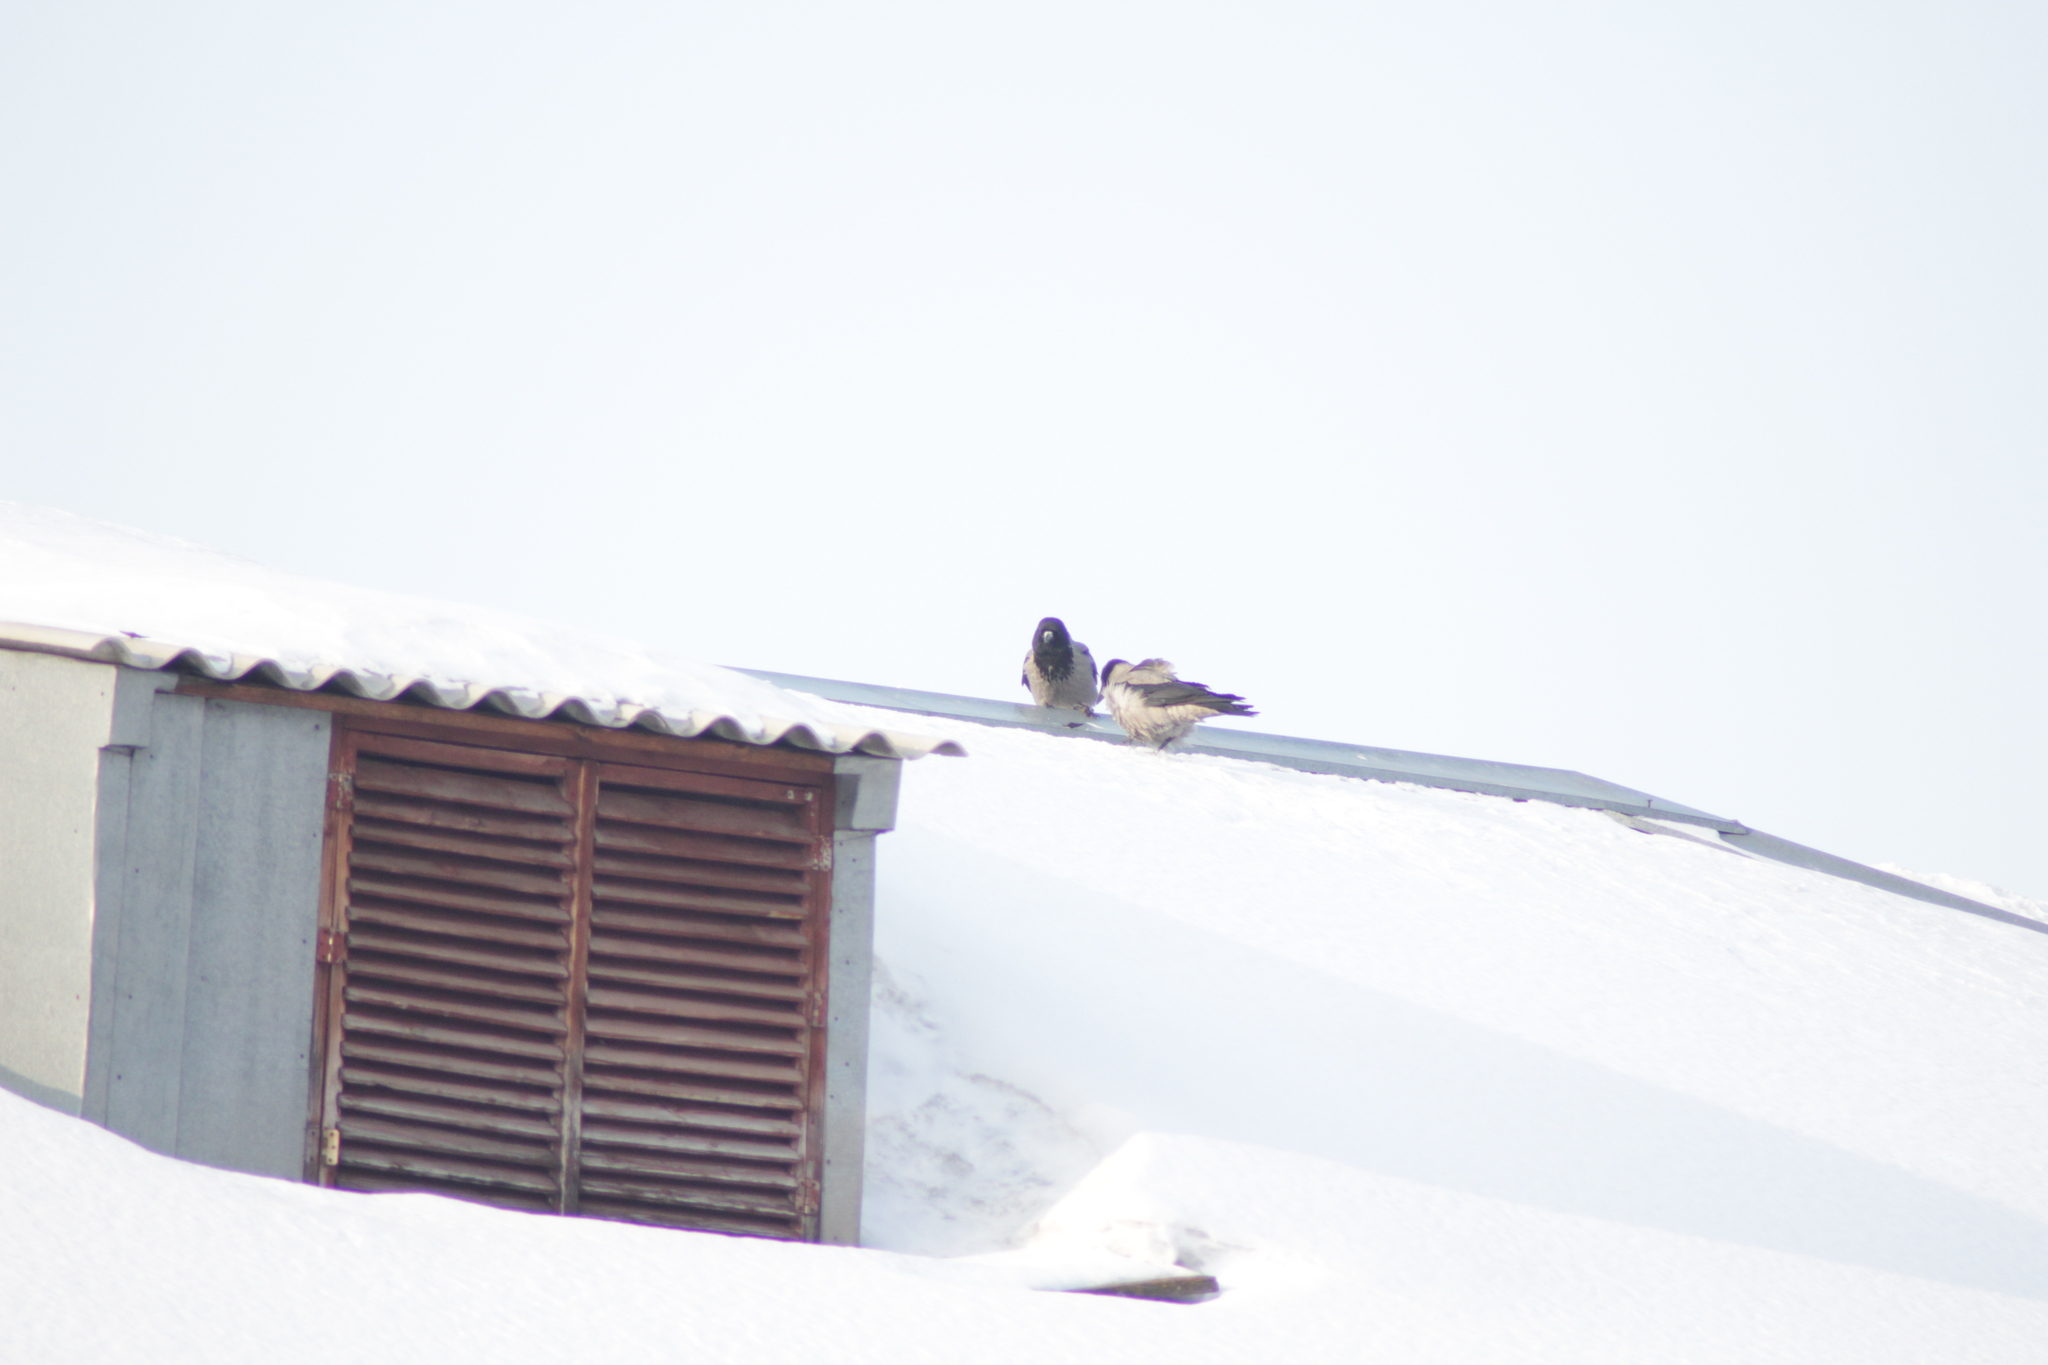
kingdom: Animalia
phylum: Chordata
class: Aves
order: Passeriformes
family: Corvidae
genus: Corvus
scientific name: Corvus cornix
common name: Hooded crow
